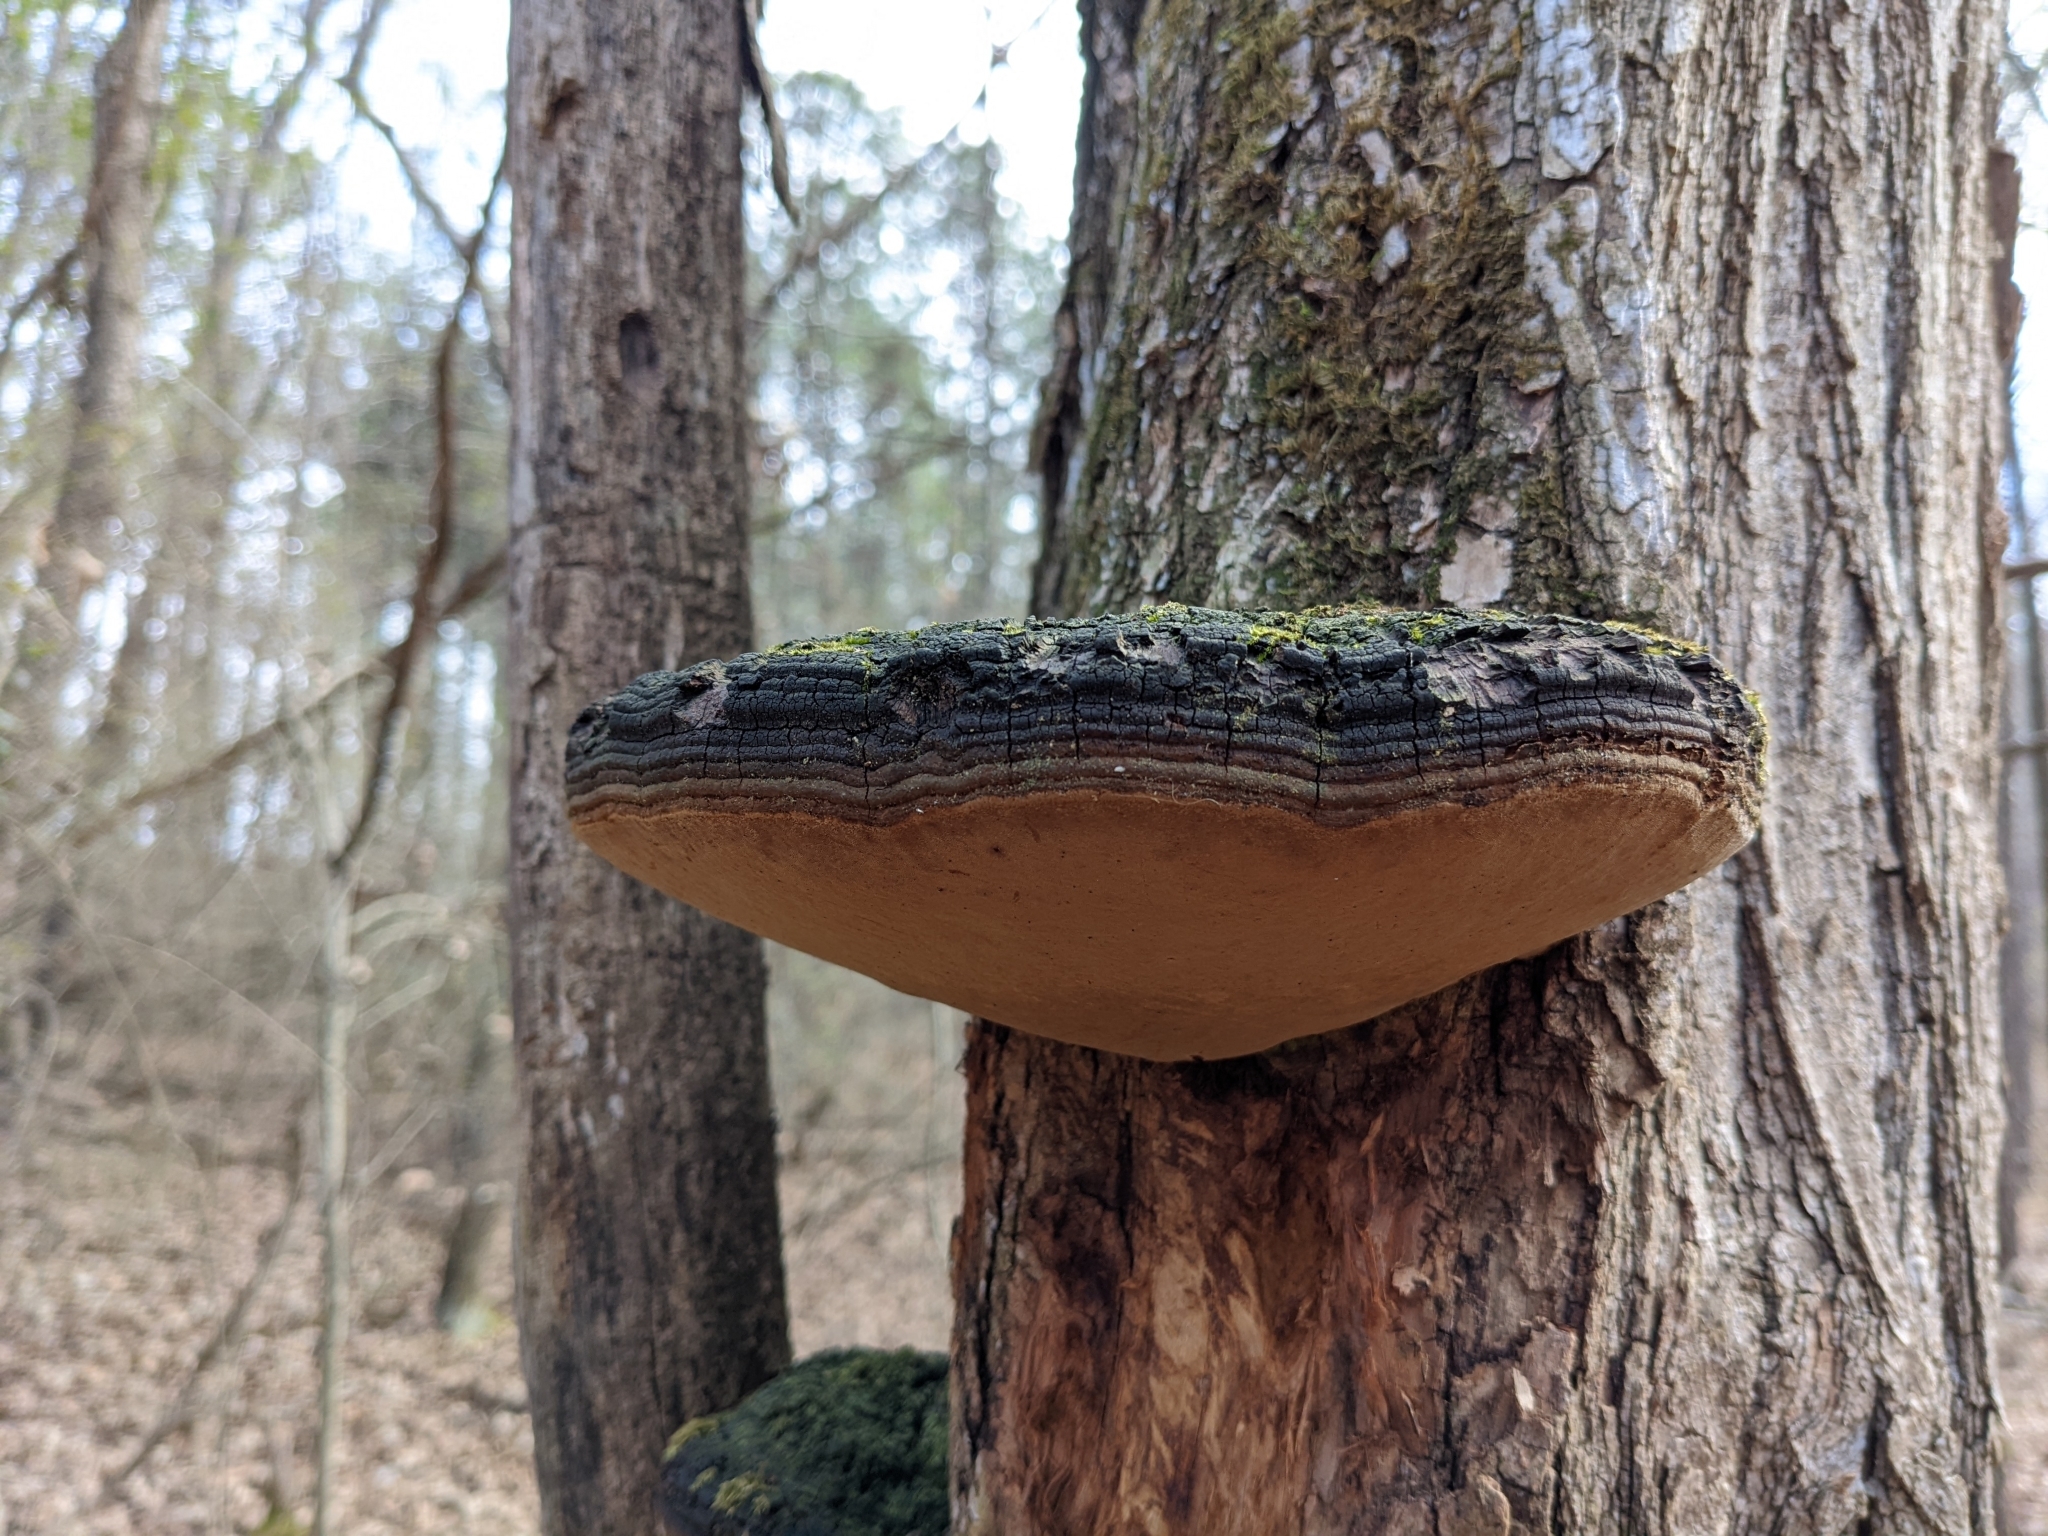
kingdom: Fungi
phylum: Basidiomycota
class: Agaricomycetes
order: Hymenochaetales
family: Hymenochaetaceae
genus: Phellinus
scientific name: Phellinus robiniae
